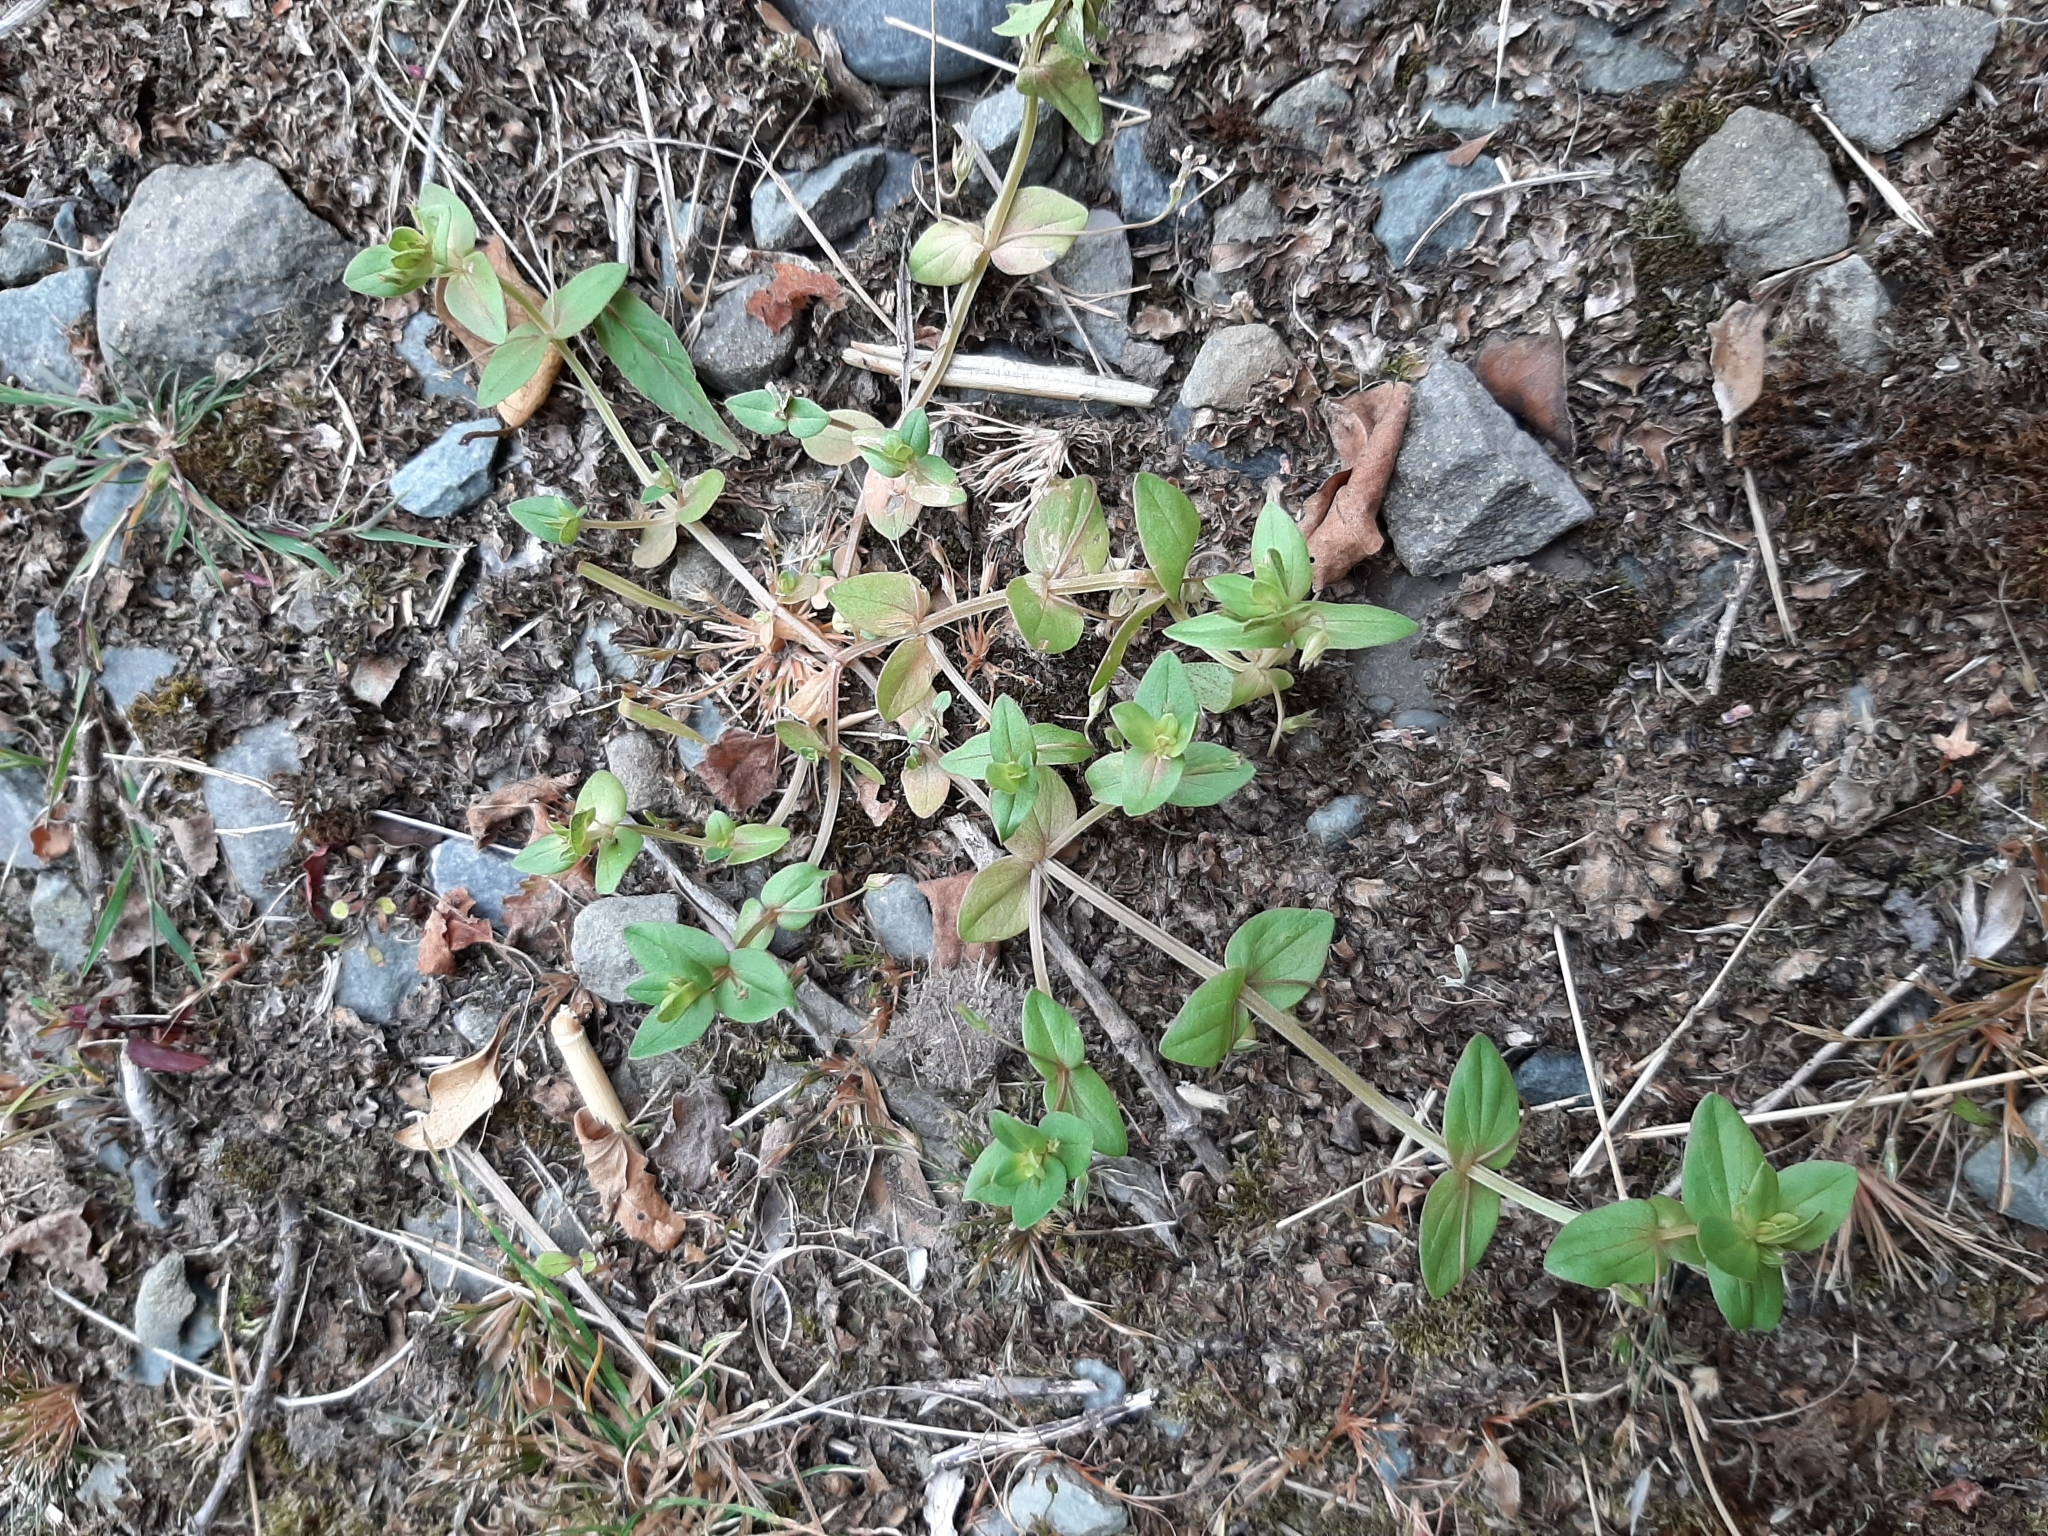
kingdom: Plantae
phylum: Tracheophyta
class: Magnoliopsida
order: Ericales
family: Primulaceae
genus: Lysimachia
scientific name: Lysimachia arvensis
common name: Scarlet pimpernel
